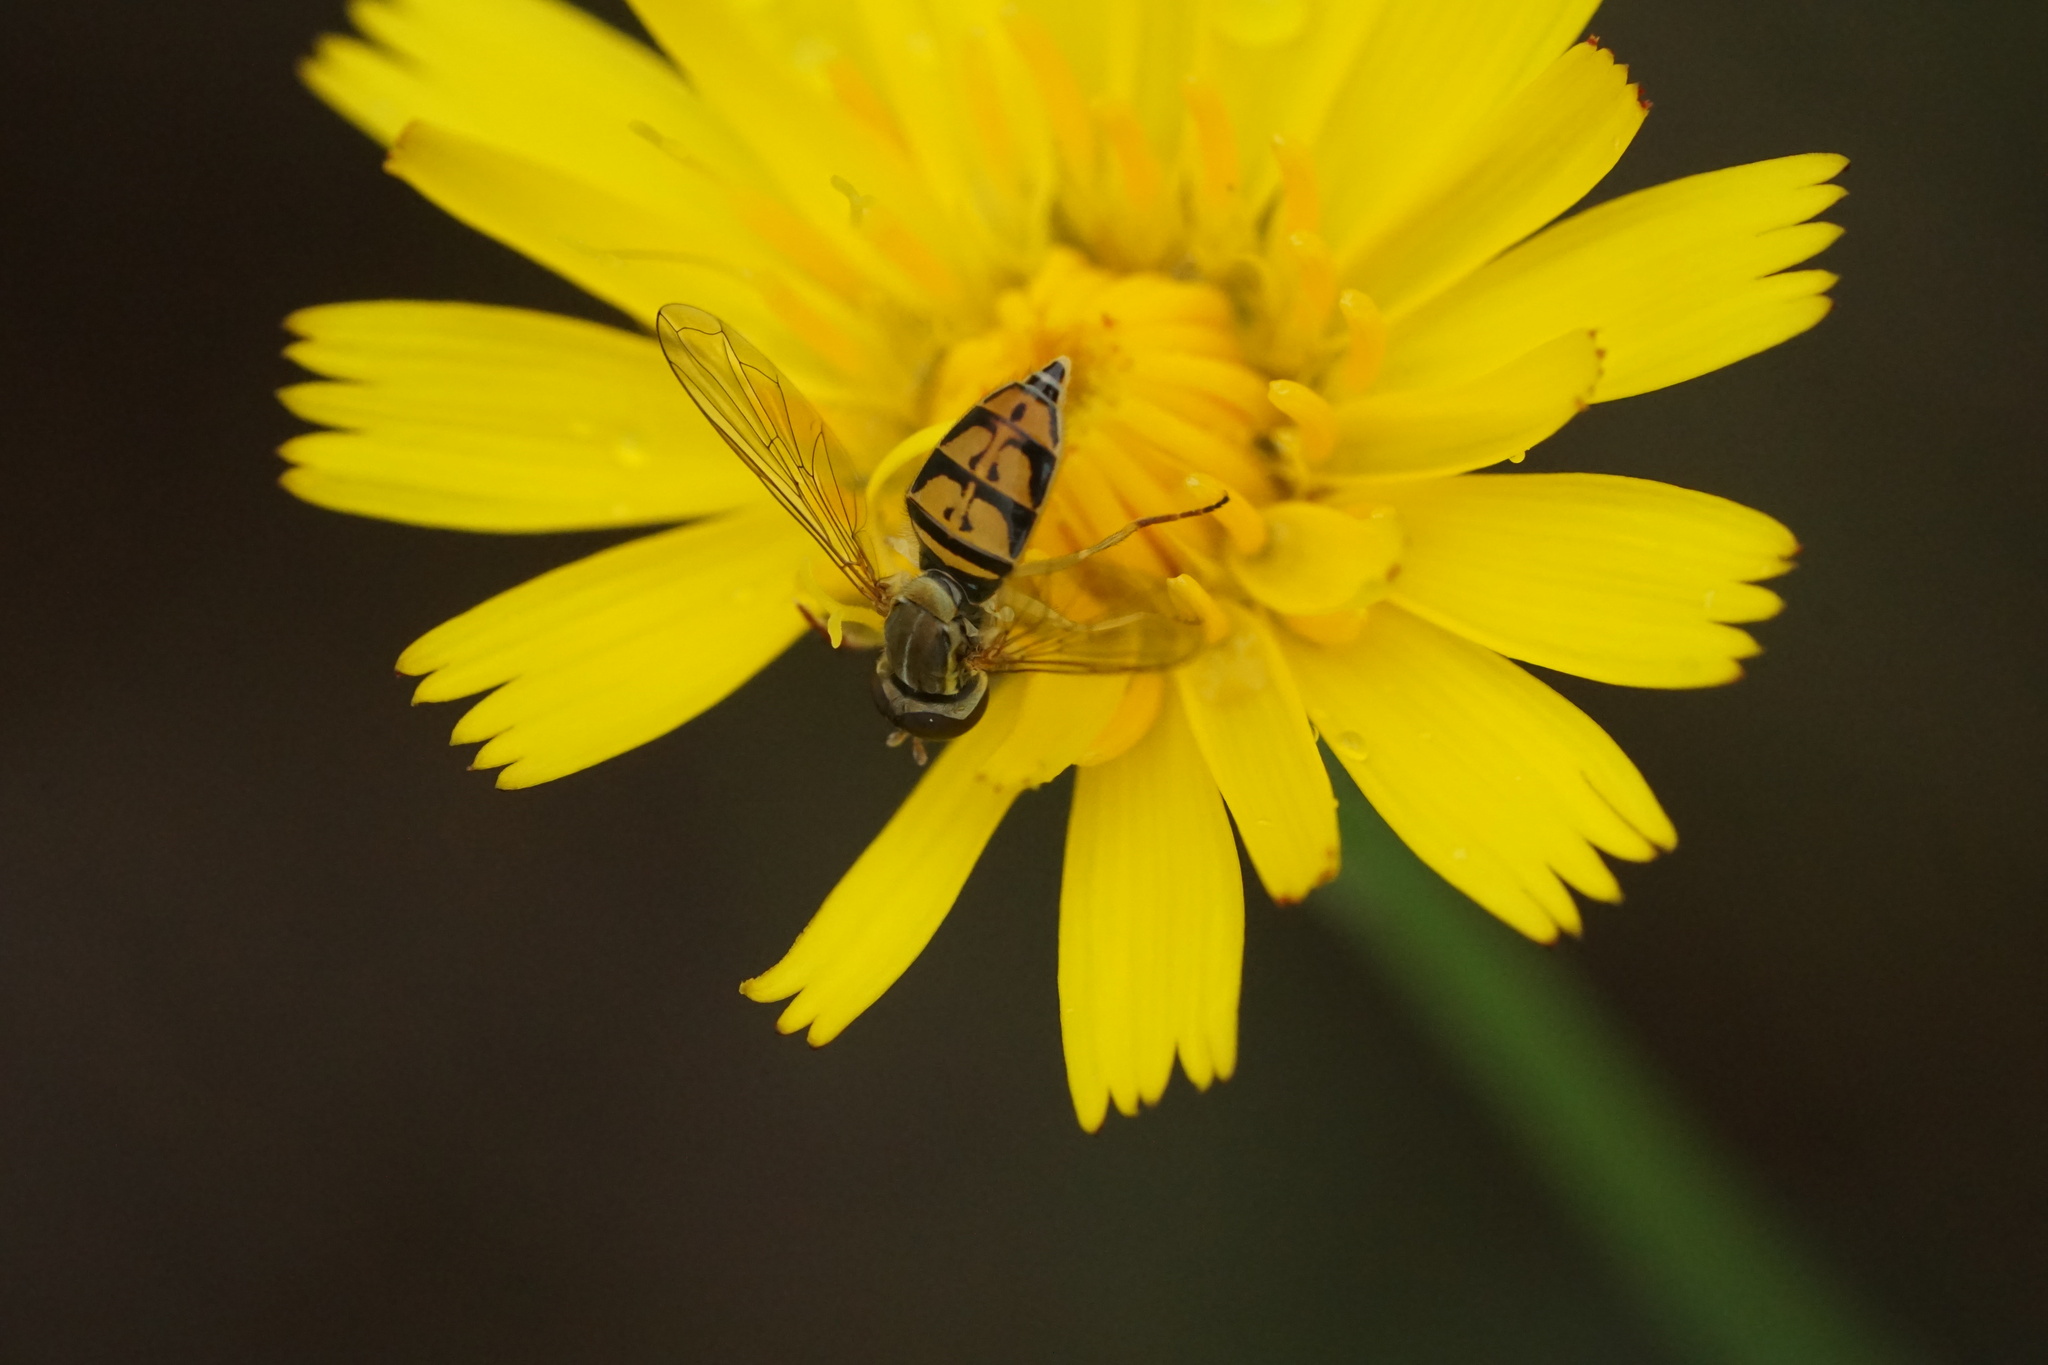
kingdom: Animalia
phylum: Arthropoda
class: Insecta
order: Diptera
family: Syrphidae
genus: Toxomerus
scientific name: Toxomerus marginatus
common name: Syrphid fly
